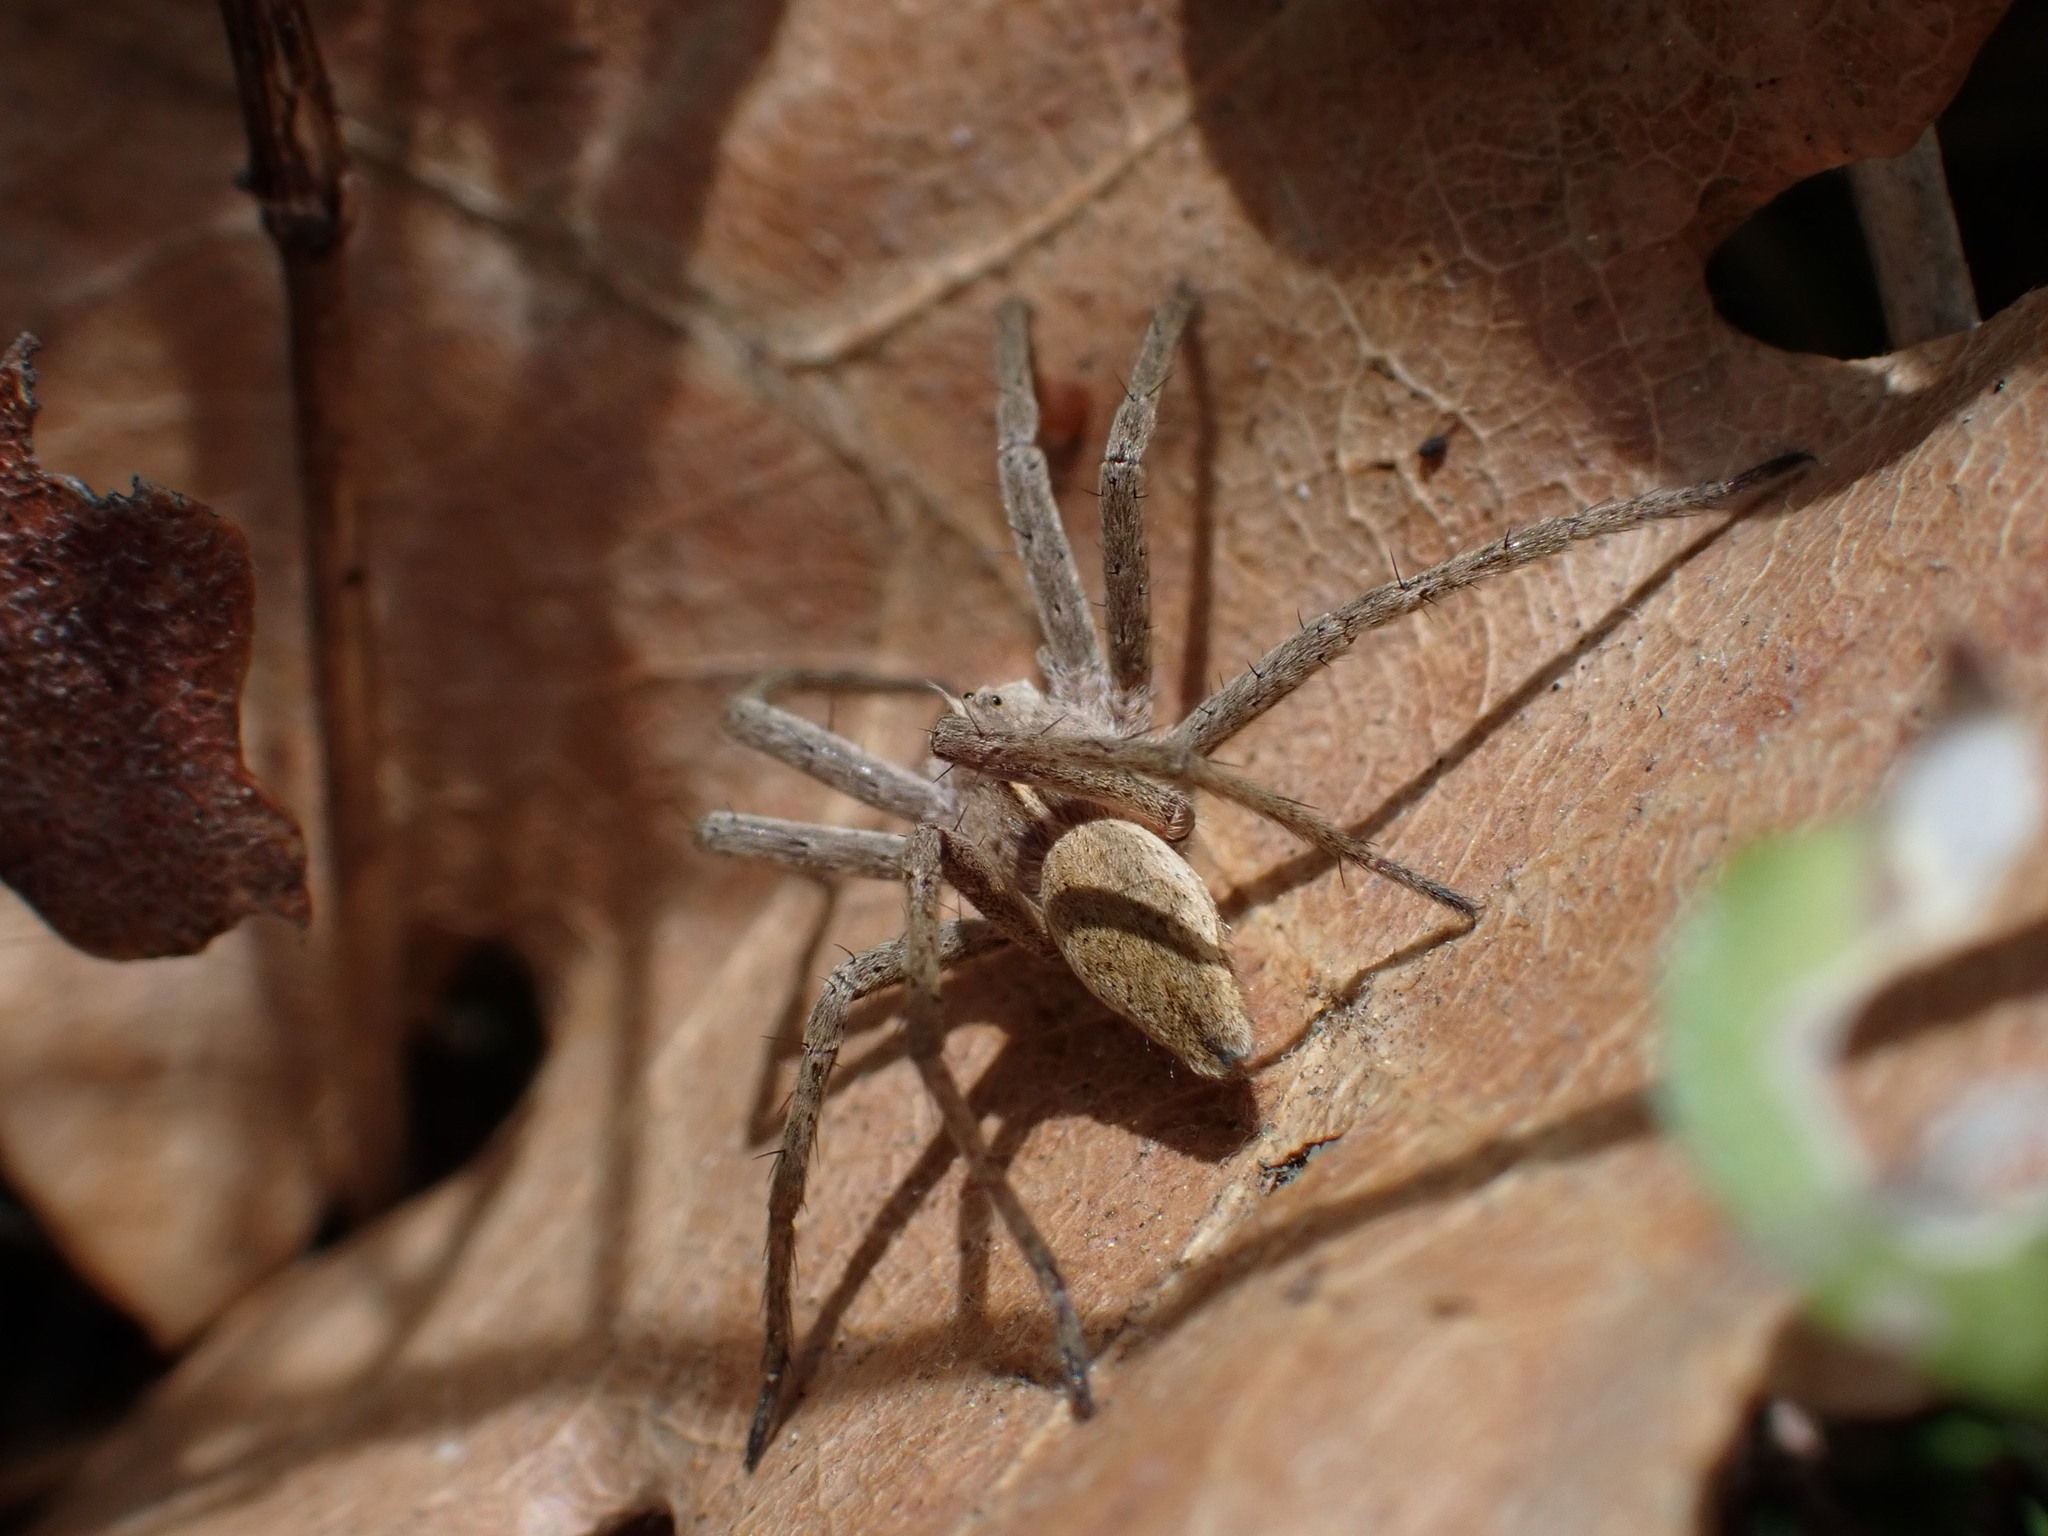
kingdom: Animalia
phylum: Arthropoda
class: Arachnida
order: Araneae
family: Pisauridae
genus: Pisaura
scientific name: Pisaura
